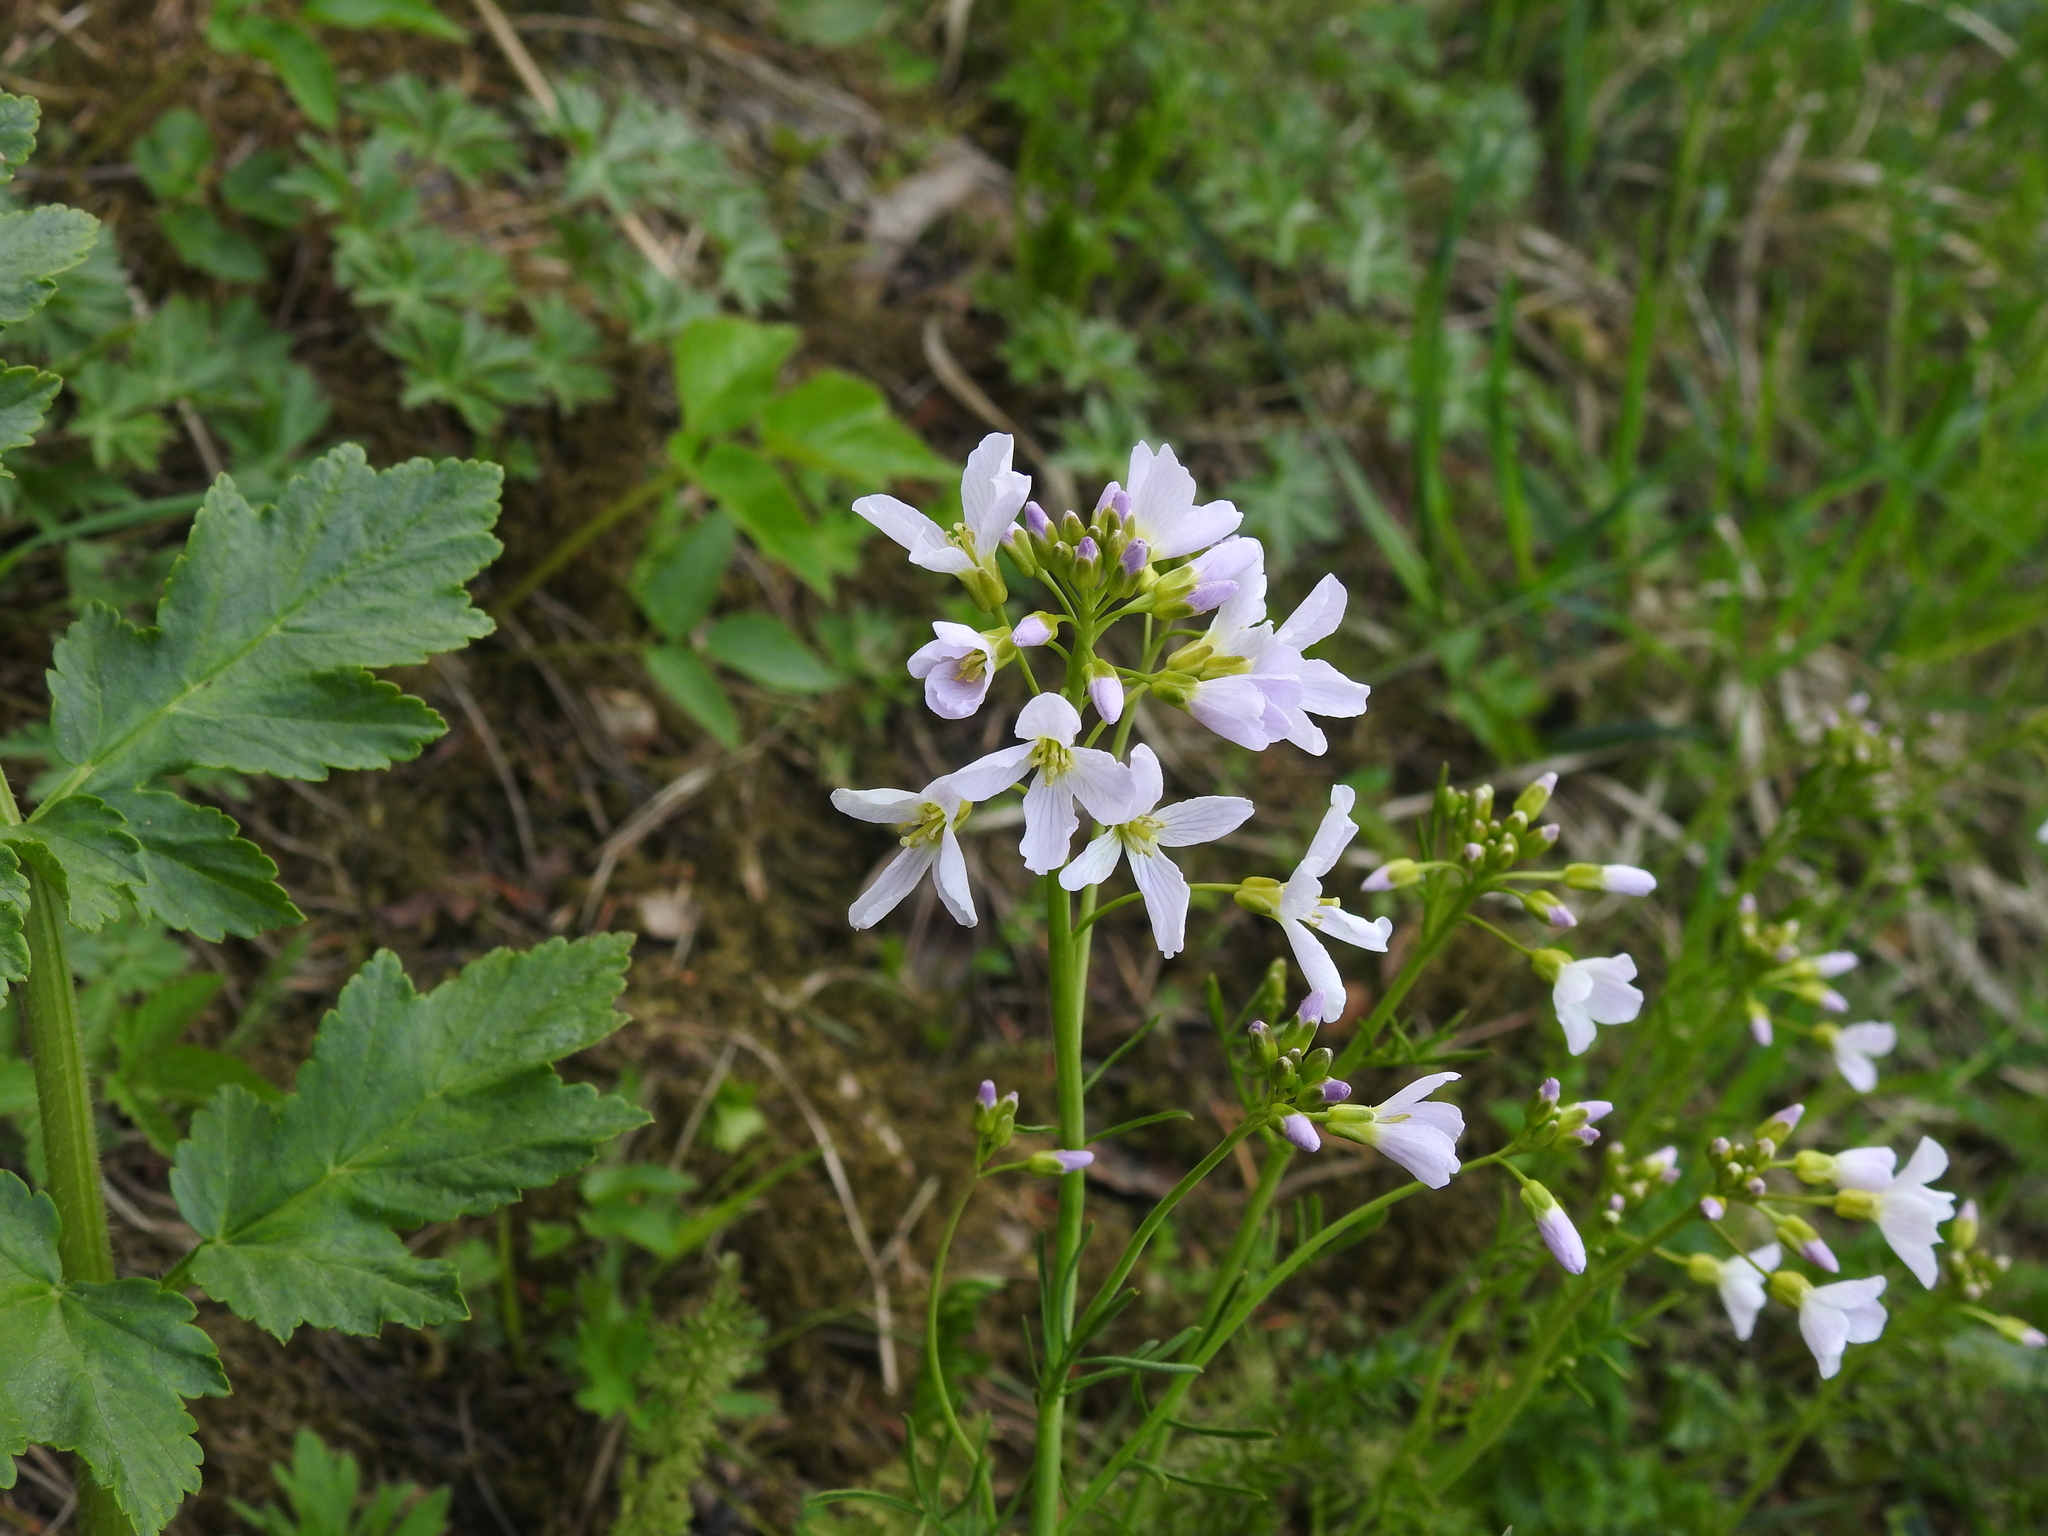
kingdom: Plantae
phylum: Tracheophyta
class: Magnoliopsida
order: Brassicales
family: Brassicaceae
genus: Cardamine
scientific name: Cardamine pratensis
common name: Cuckoo flower
